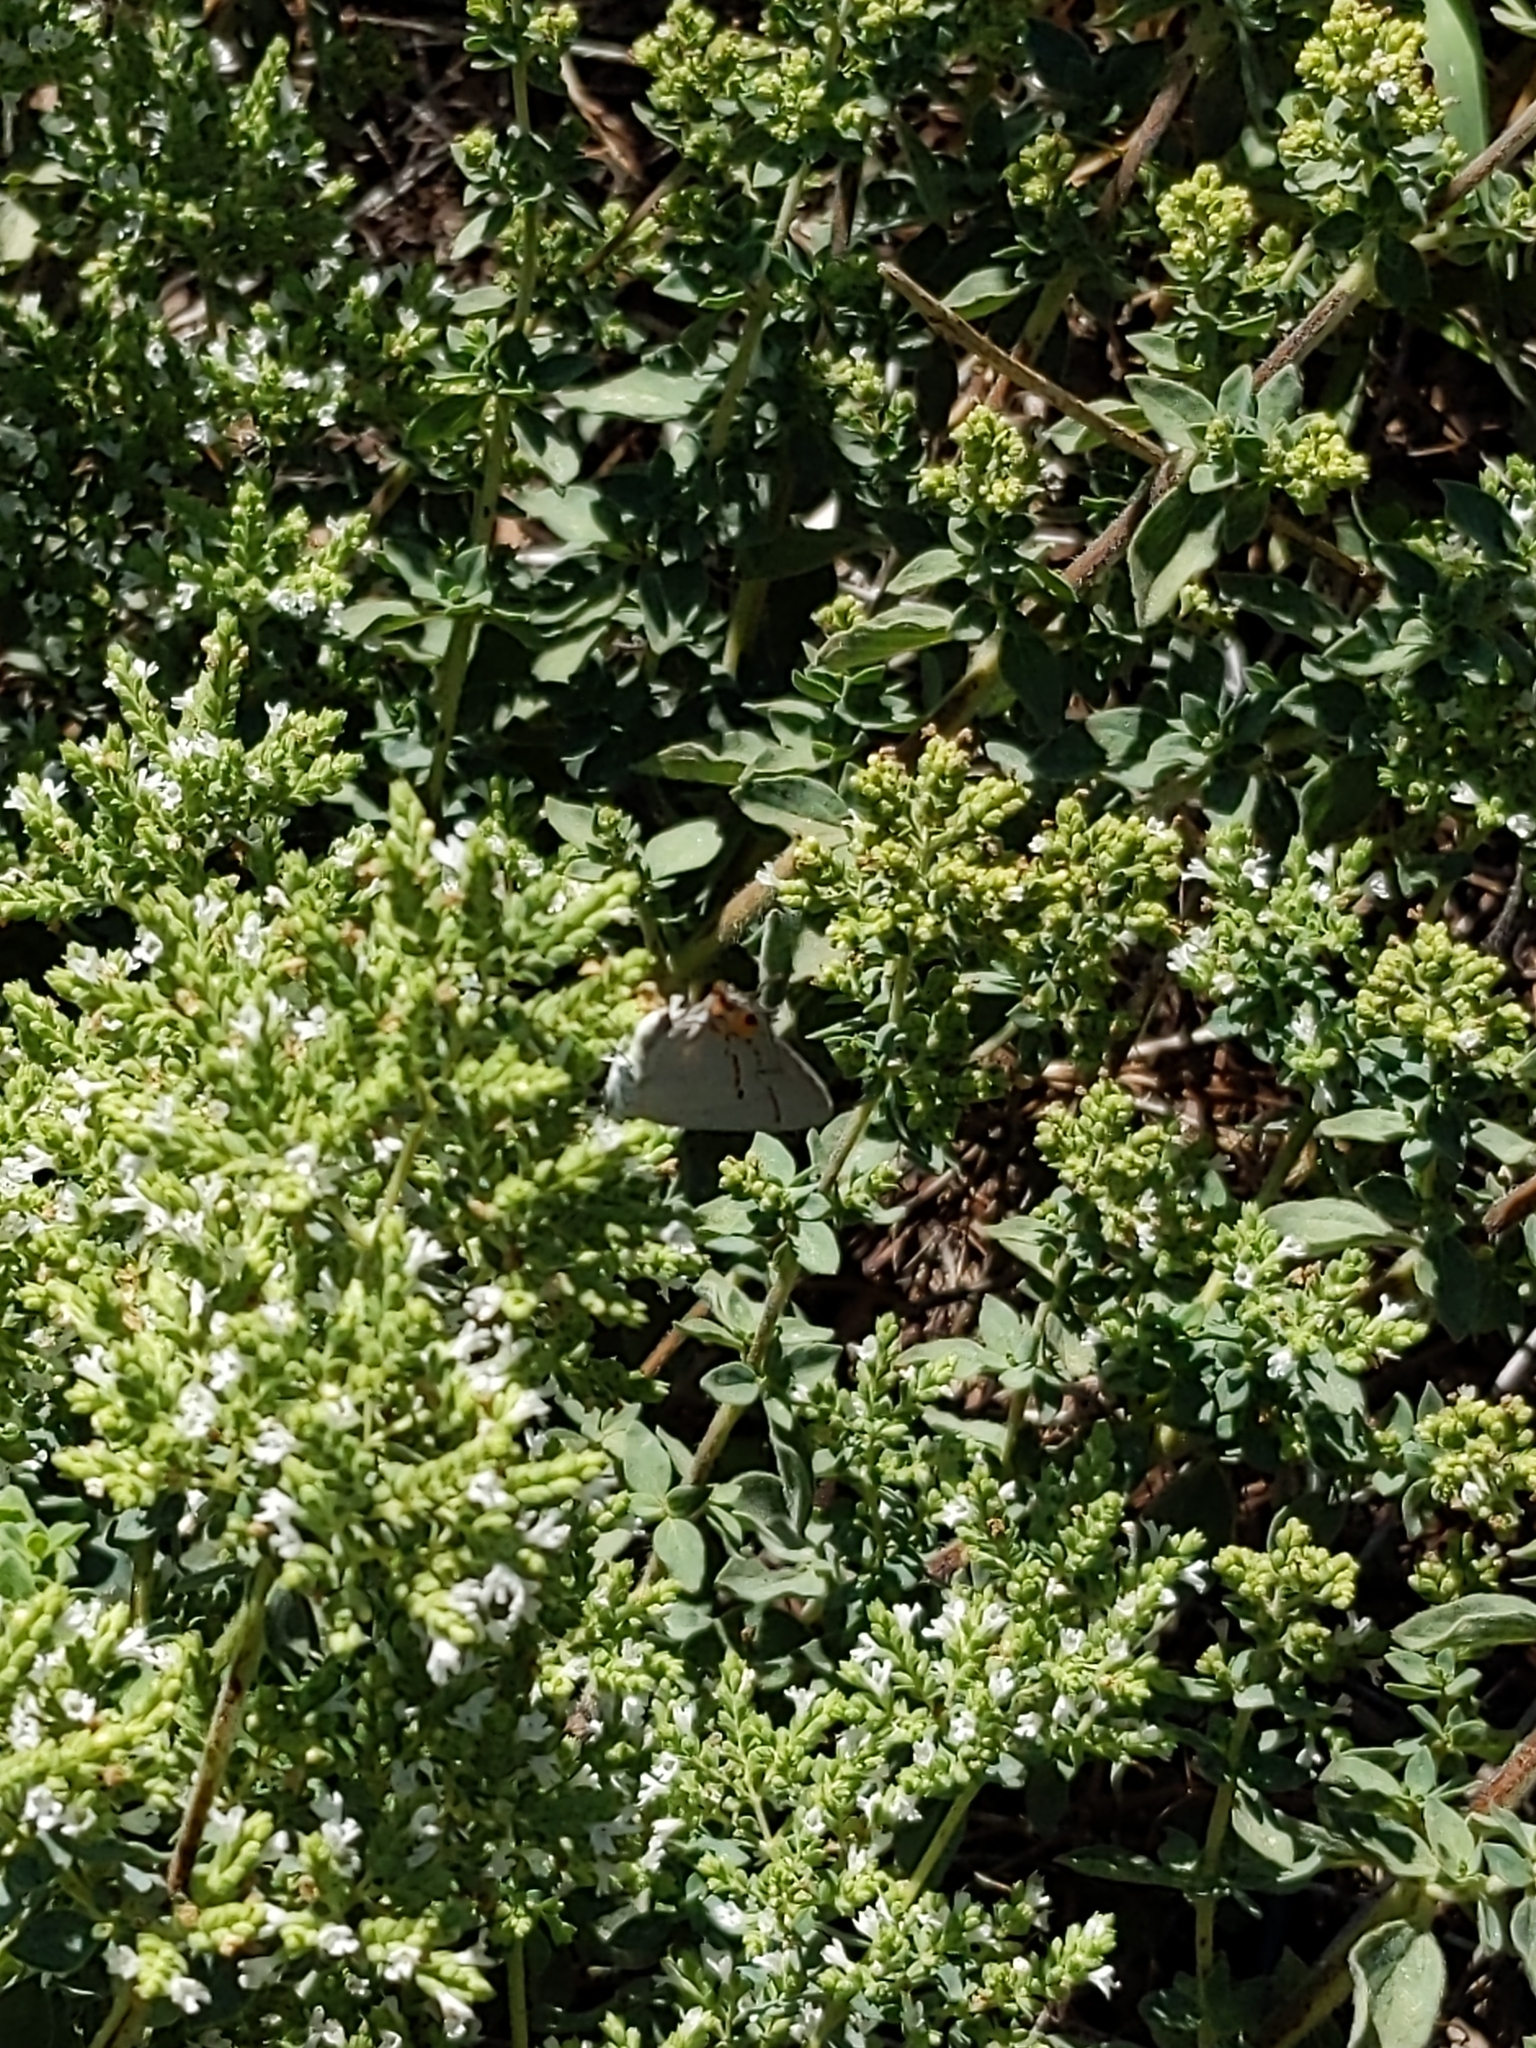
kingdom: Animalia
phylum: Arthropoda
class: Insecta
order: Lepidoptera
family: Lycaenidae
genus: Strymon
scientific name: Strymon melinus
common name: Gray hairstreak
